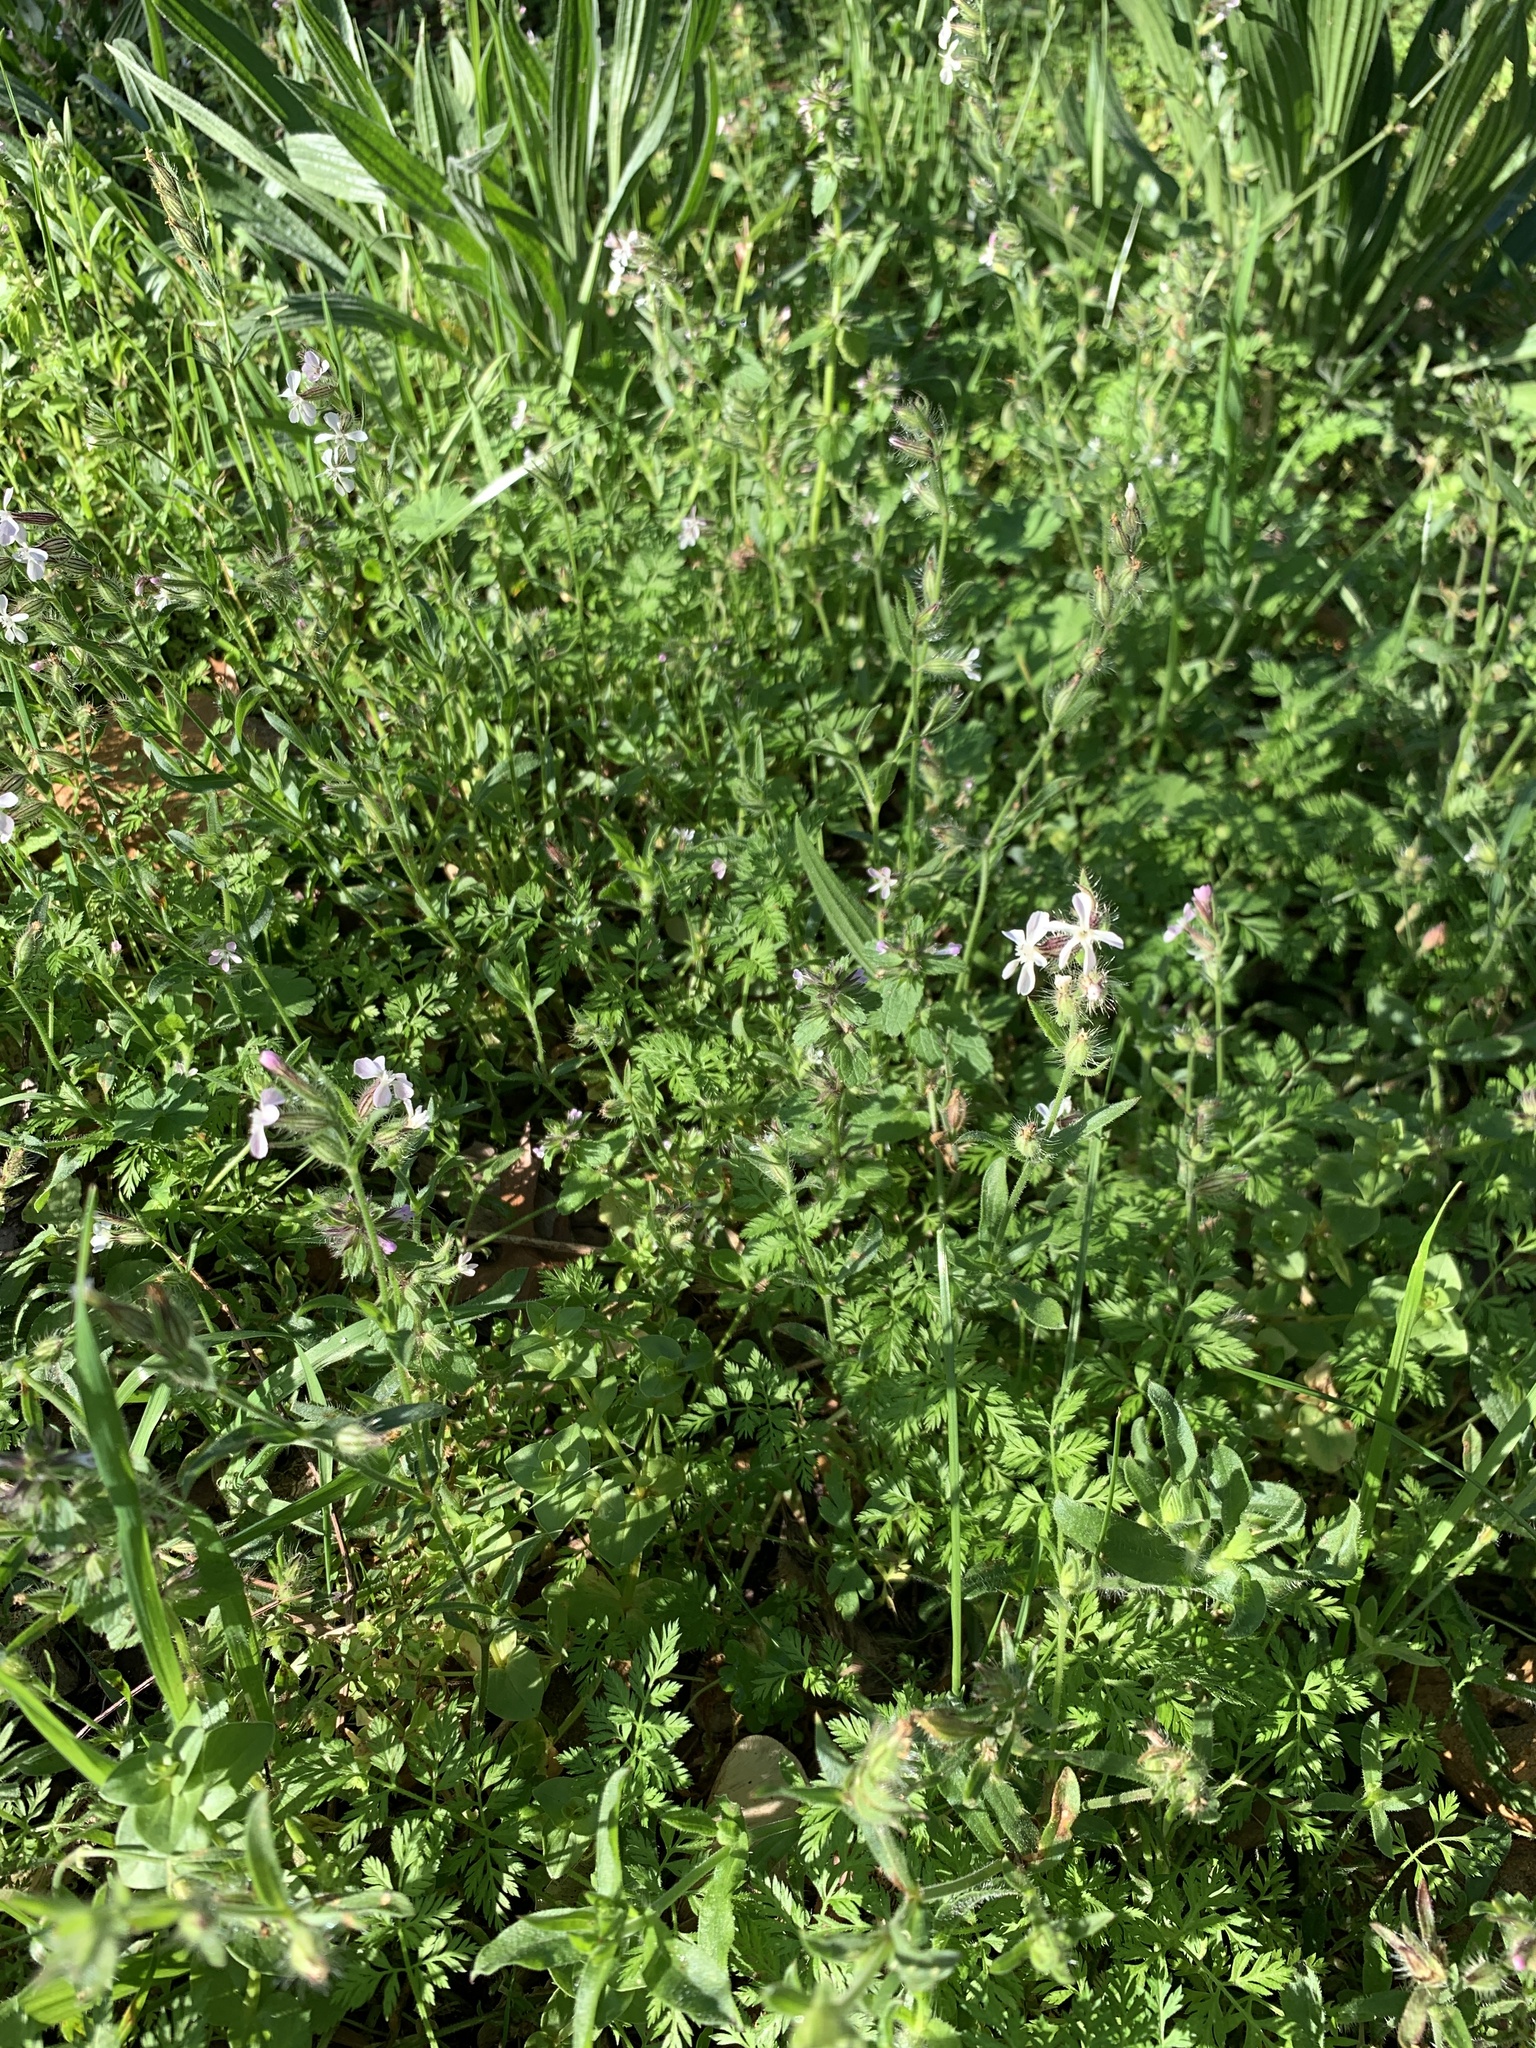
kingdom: Plantae
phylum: Tracheophyta
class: Magnoliopsida
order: Caryophyllales
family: Caryophyllaceae
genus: Silene
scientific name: Silene gallica
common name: Small-flowered catchfly
